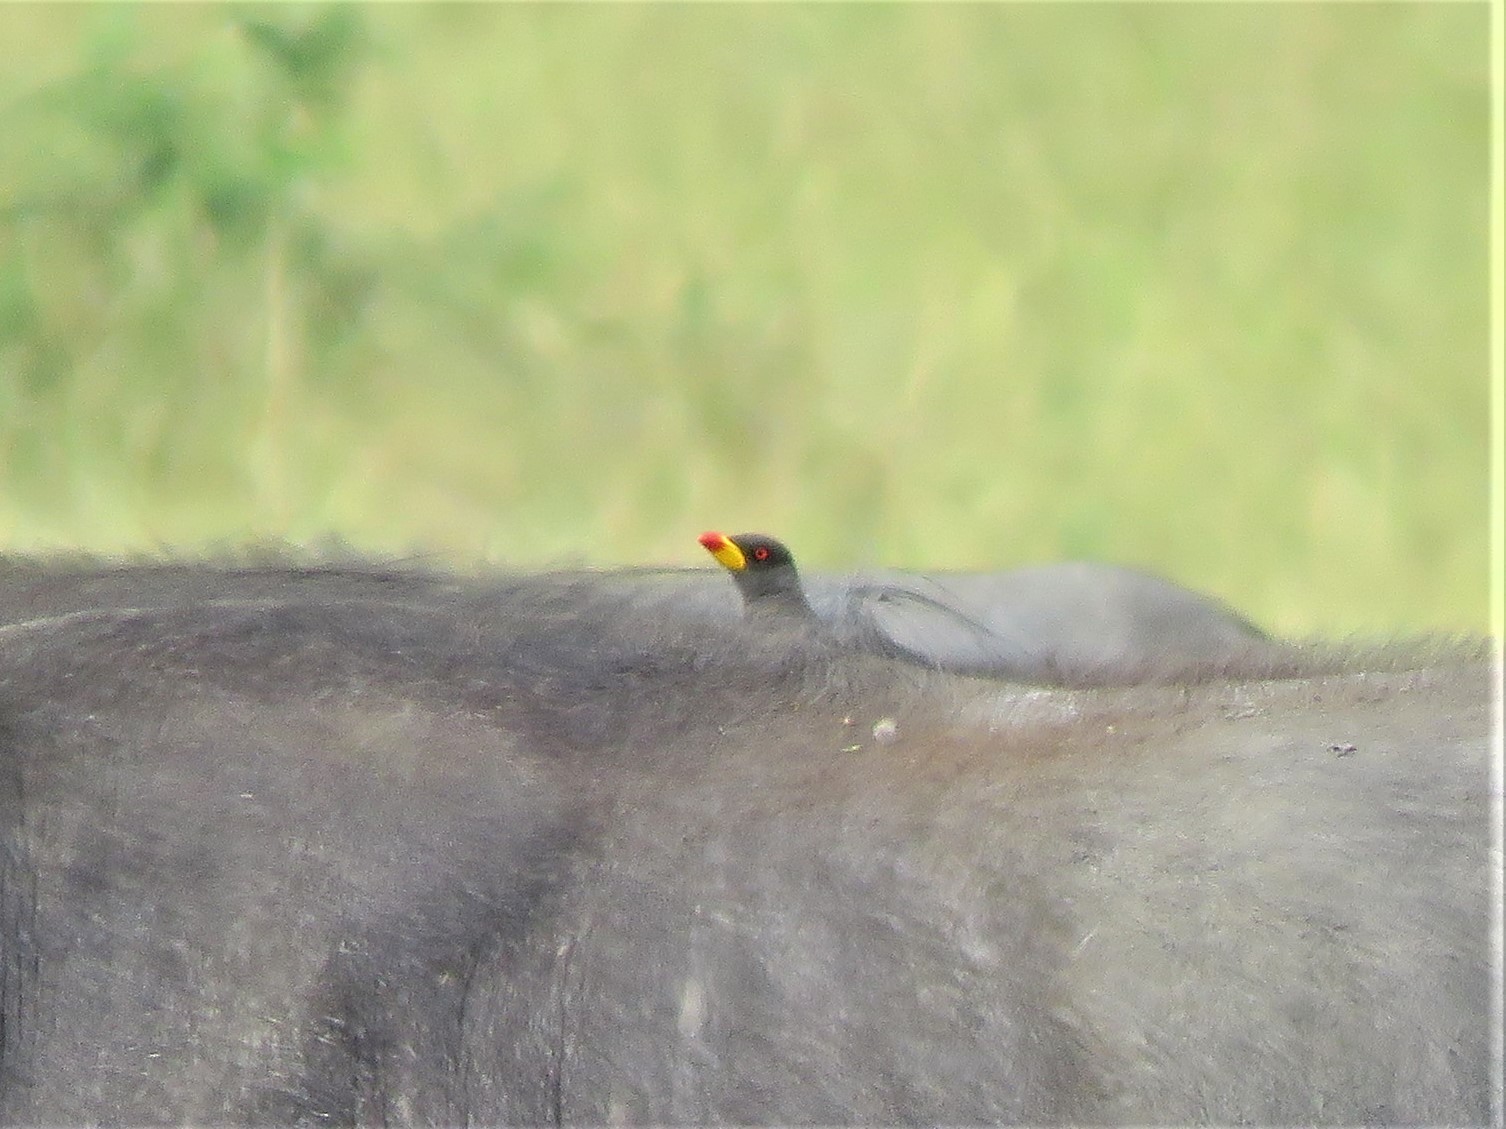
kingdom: Animalia
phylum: Chordata
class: Aves
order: Passeriformes
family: Buphagidae
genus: Buphagus
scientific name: Buphagus africanus
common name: Yellow-billed oxpecker
